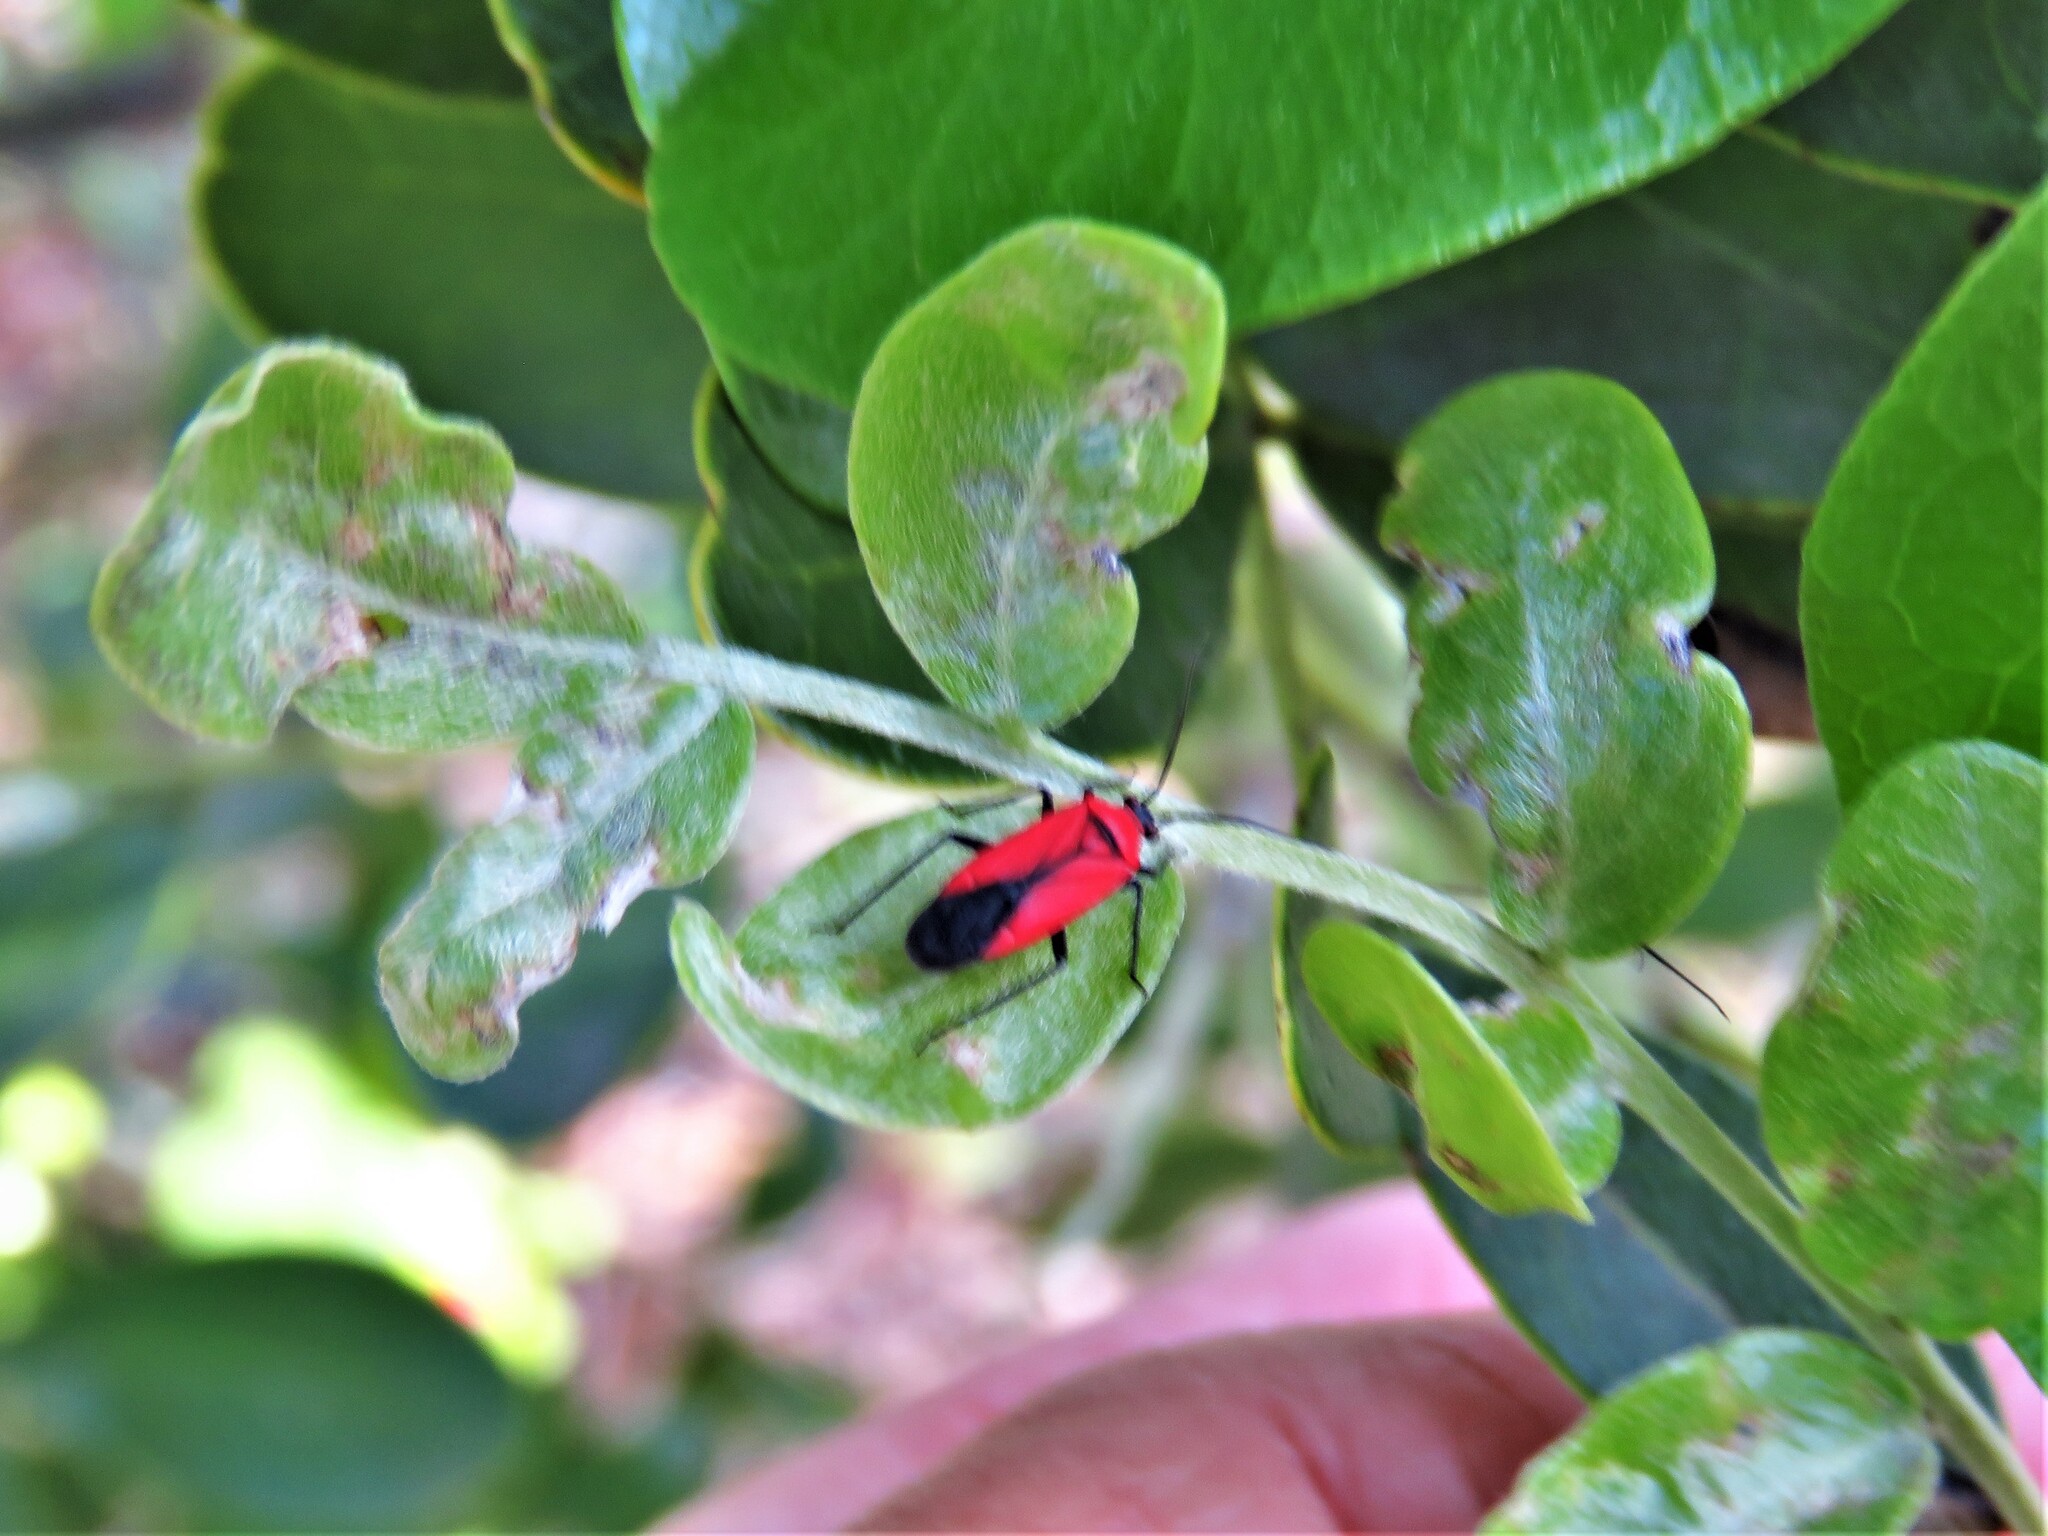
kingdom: Animalia
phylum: Arthropoda
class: Insecta
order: Hemiptera
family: Miridae
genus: Lopidea
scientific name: Lopidea major
